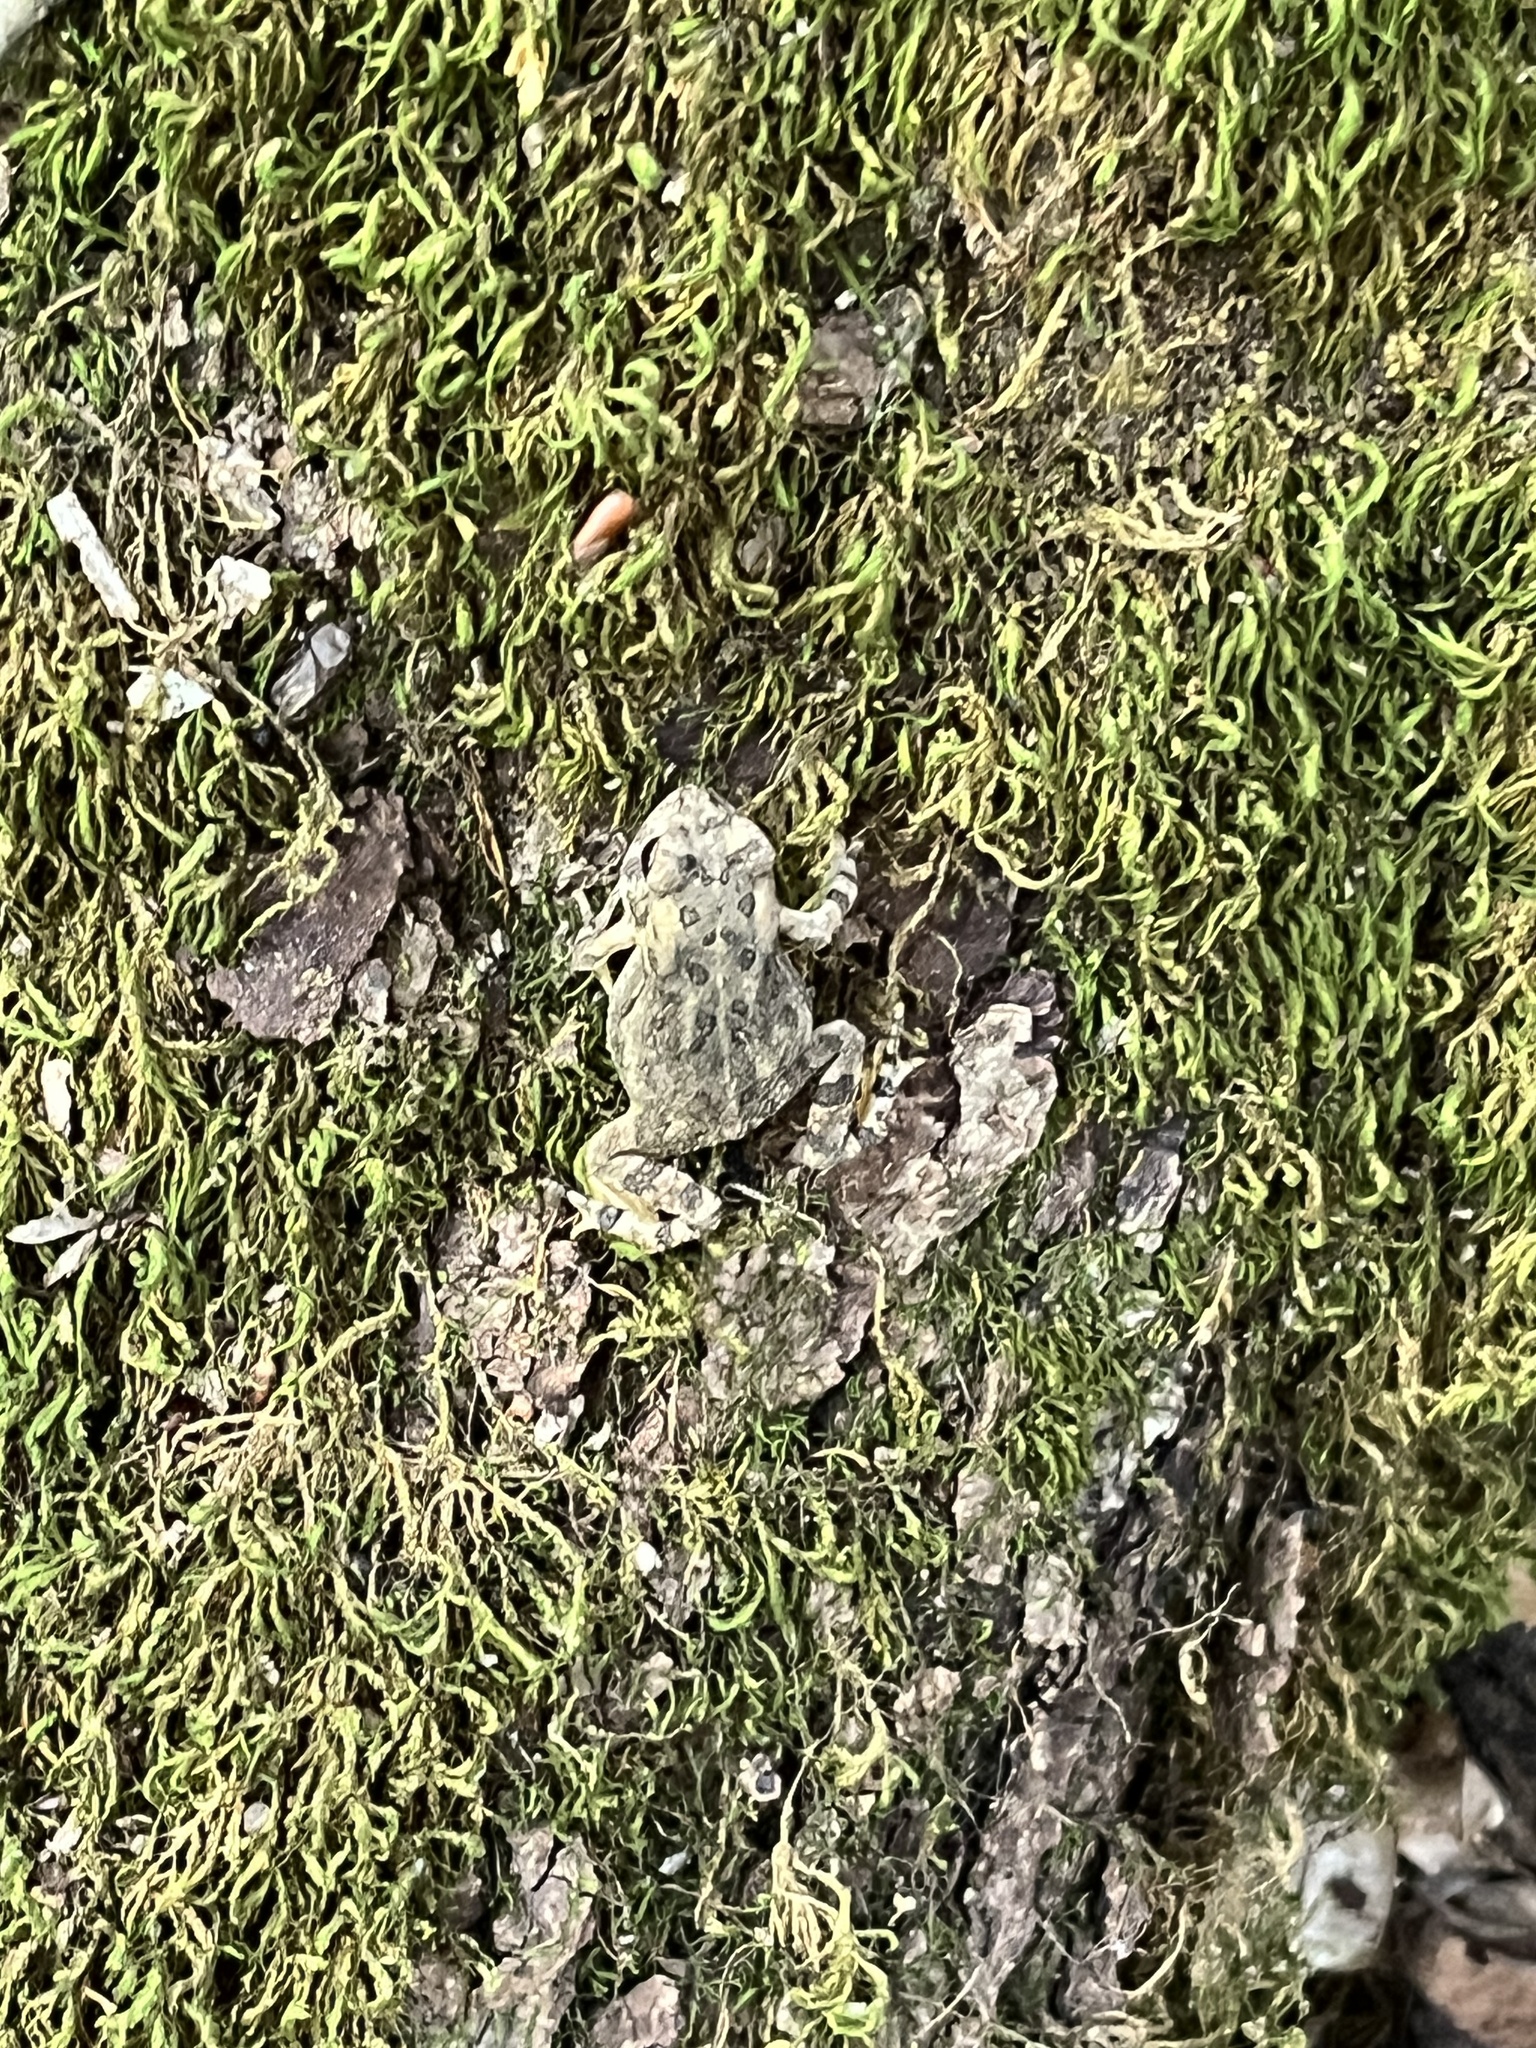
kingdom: Animalia
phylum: Chordata
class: Amphibia
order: Anura
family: Bufonidae
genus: Anaxyrus
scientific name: Anaxyrus fowleri
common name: Fowler's toad
